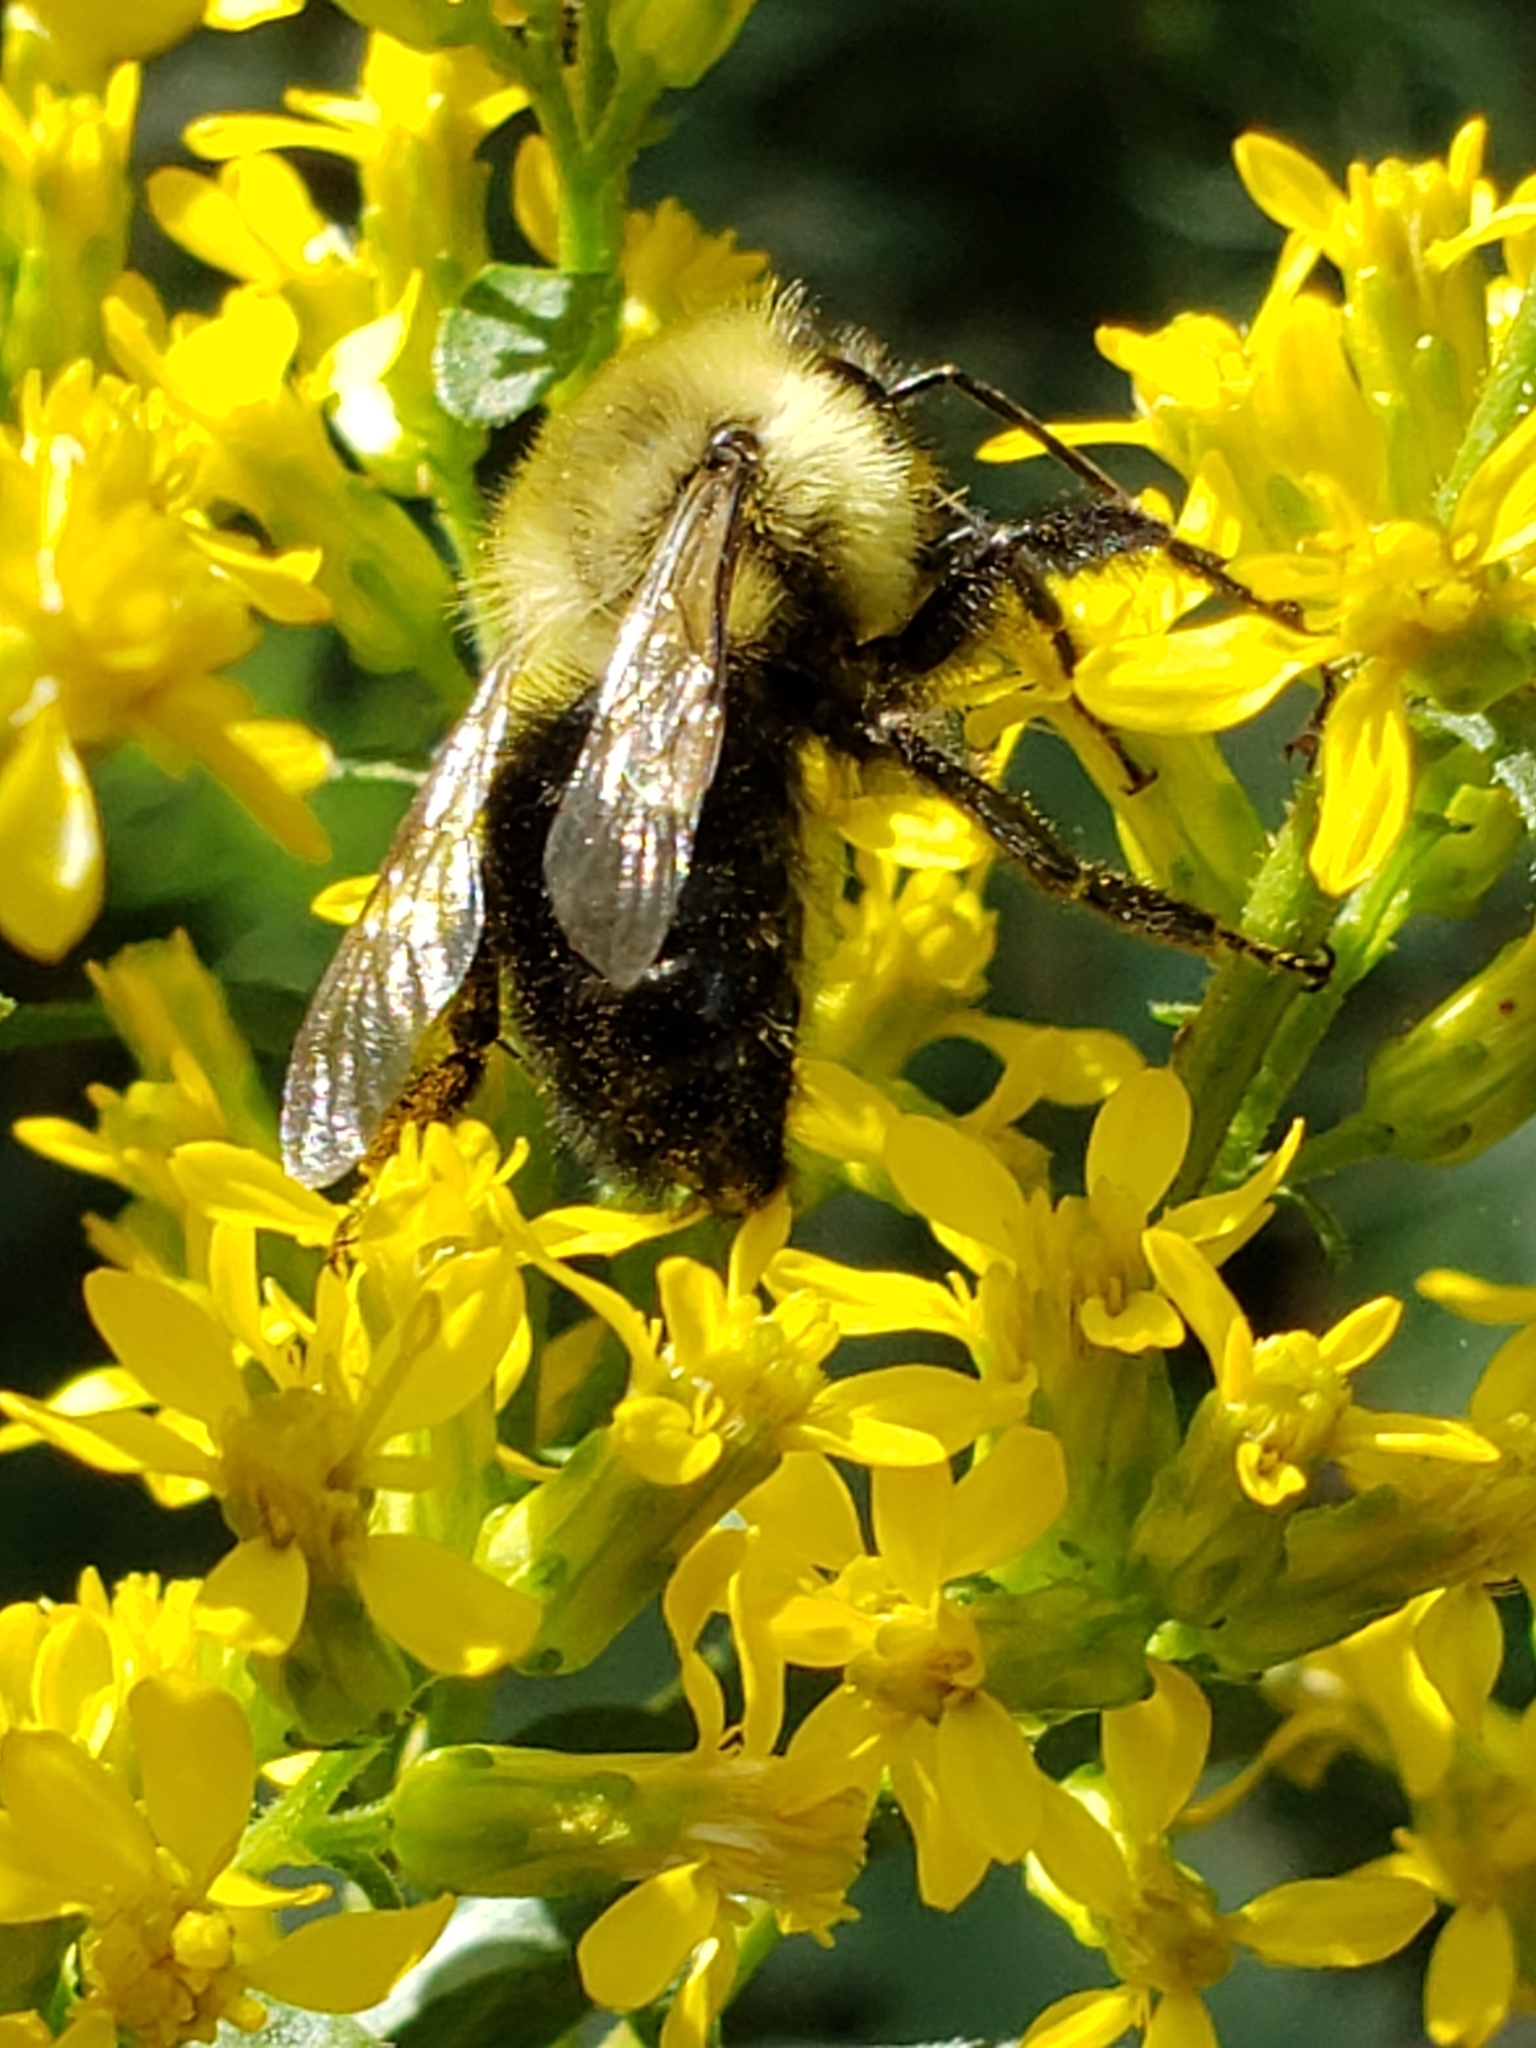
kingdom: Animalia
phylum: Arthropoda
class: Insecta
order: Hymenoptera
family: Apidae
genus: Bombus
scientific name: Bombus impatiens
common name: Common eastern bumble bee
